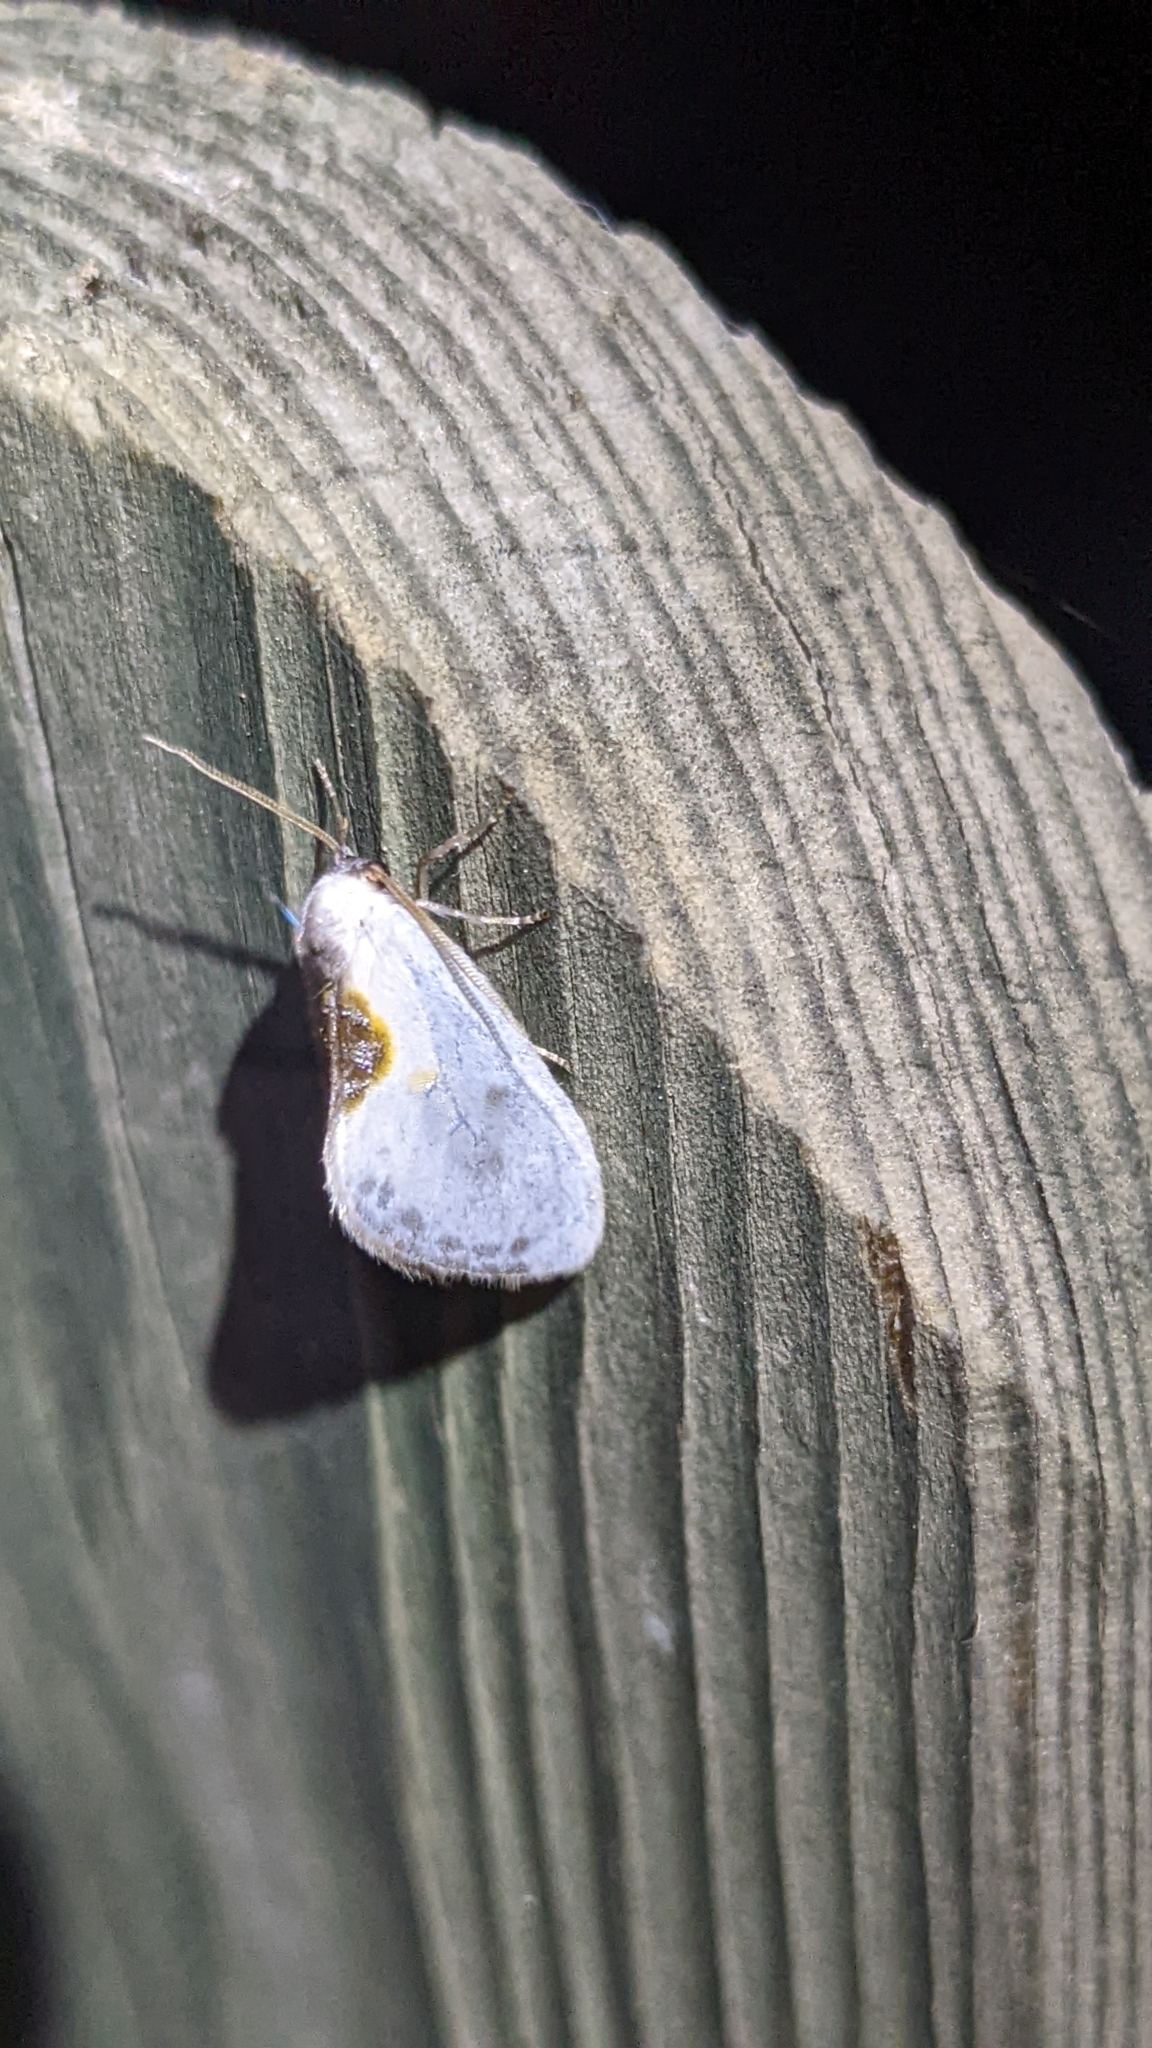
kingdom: Animalia
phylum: Arthropoda
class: Insecta
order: Lepidoptera
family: Drepanidae
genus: Cilix
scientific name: Cilix glaucata
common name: Chinese character
